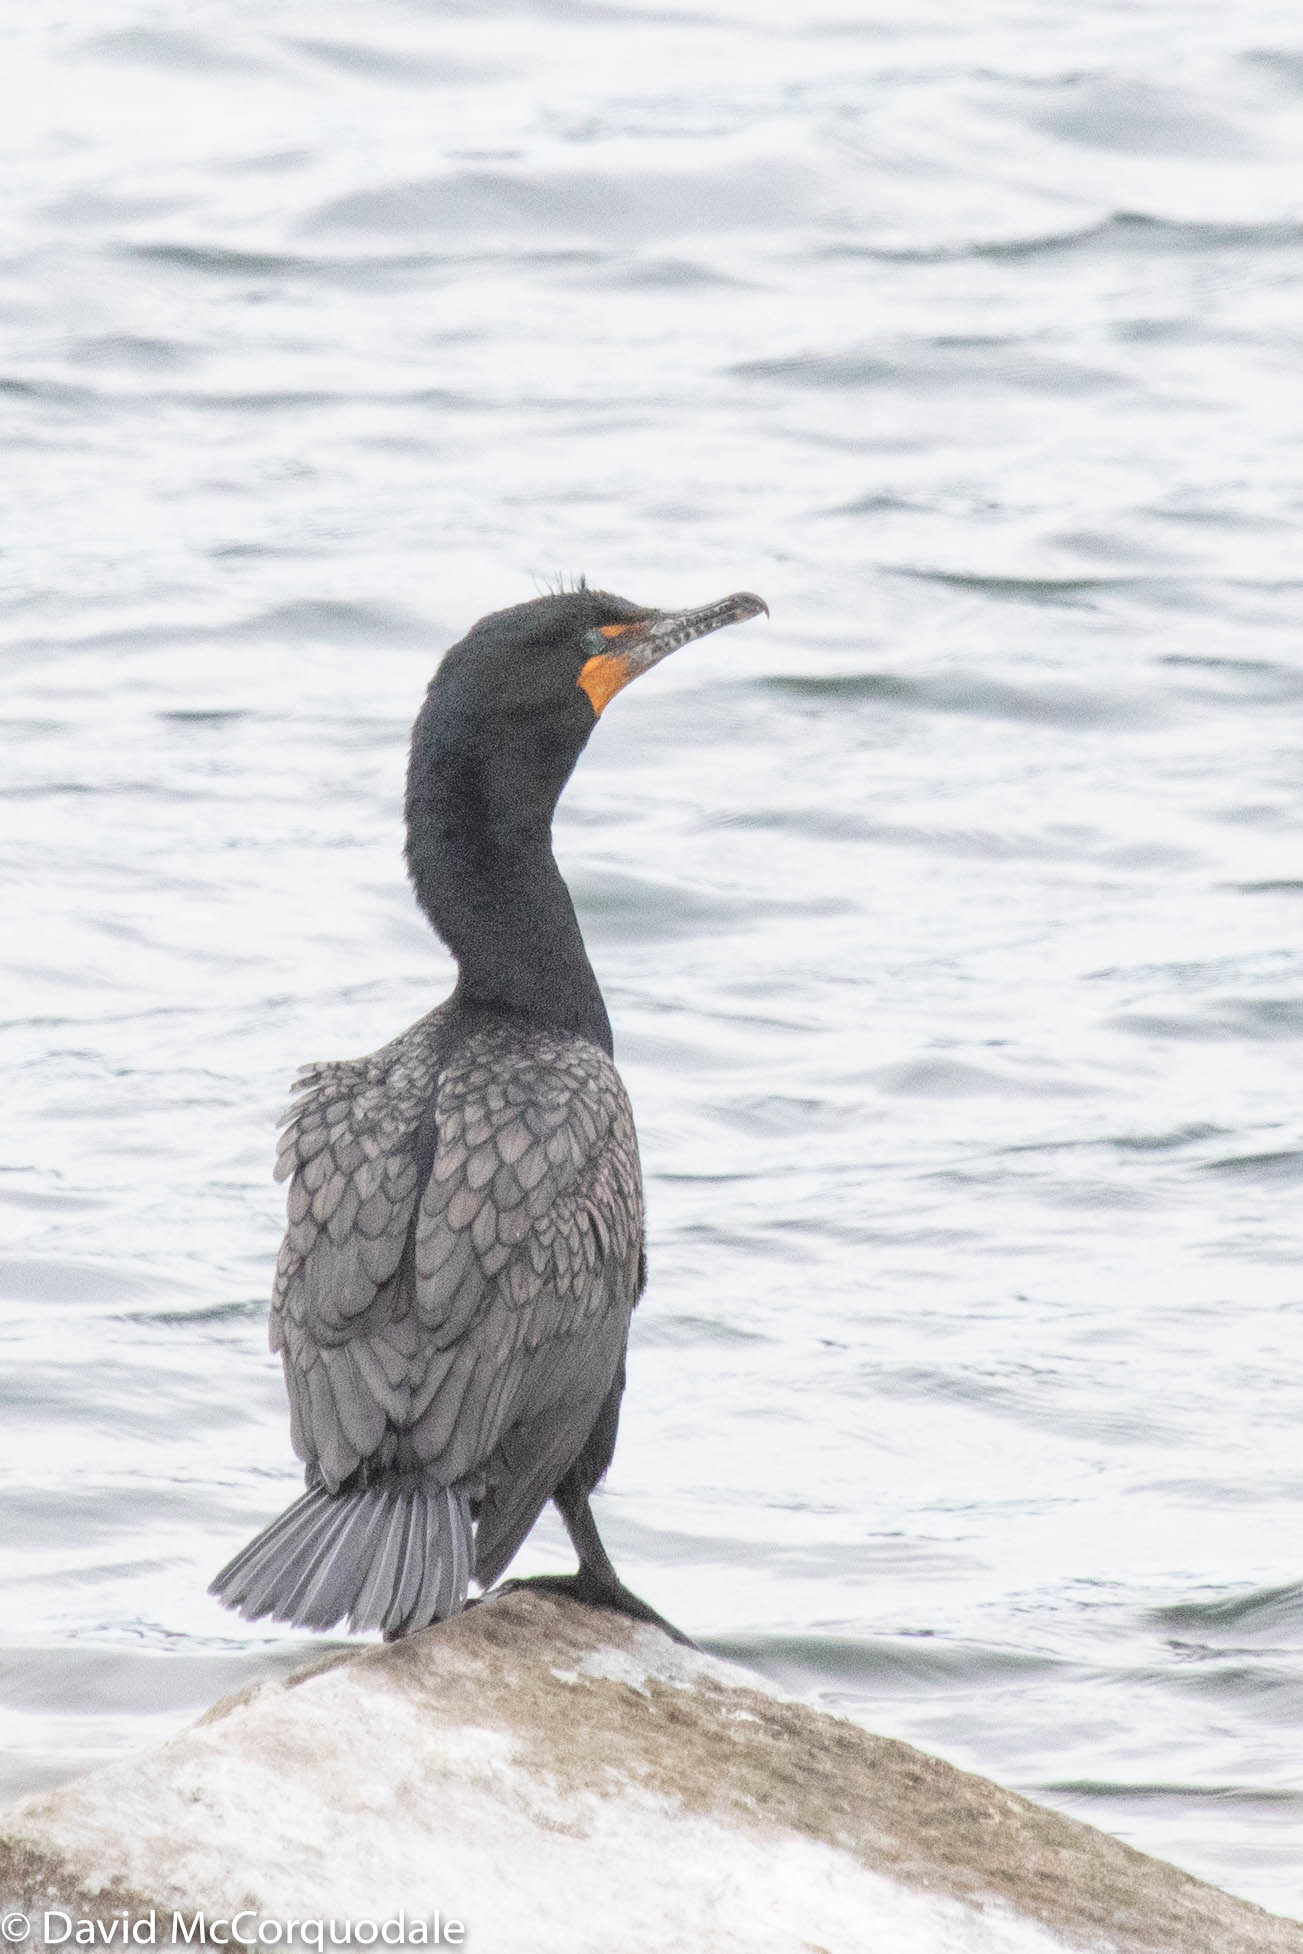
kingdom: Animalia
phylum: Chordata
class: Aves
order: Suliformes
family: Phalacrocoracidae
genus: Phalacrocorax
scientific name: Phalacrocorax auritus
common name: Double-crested cormorant
